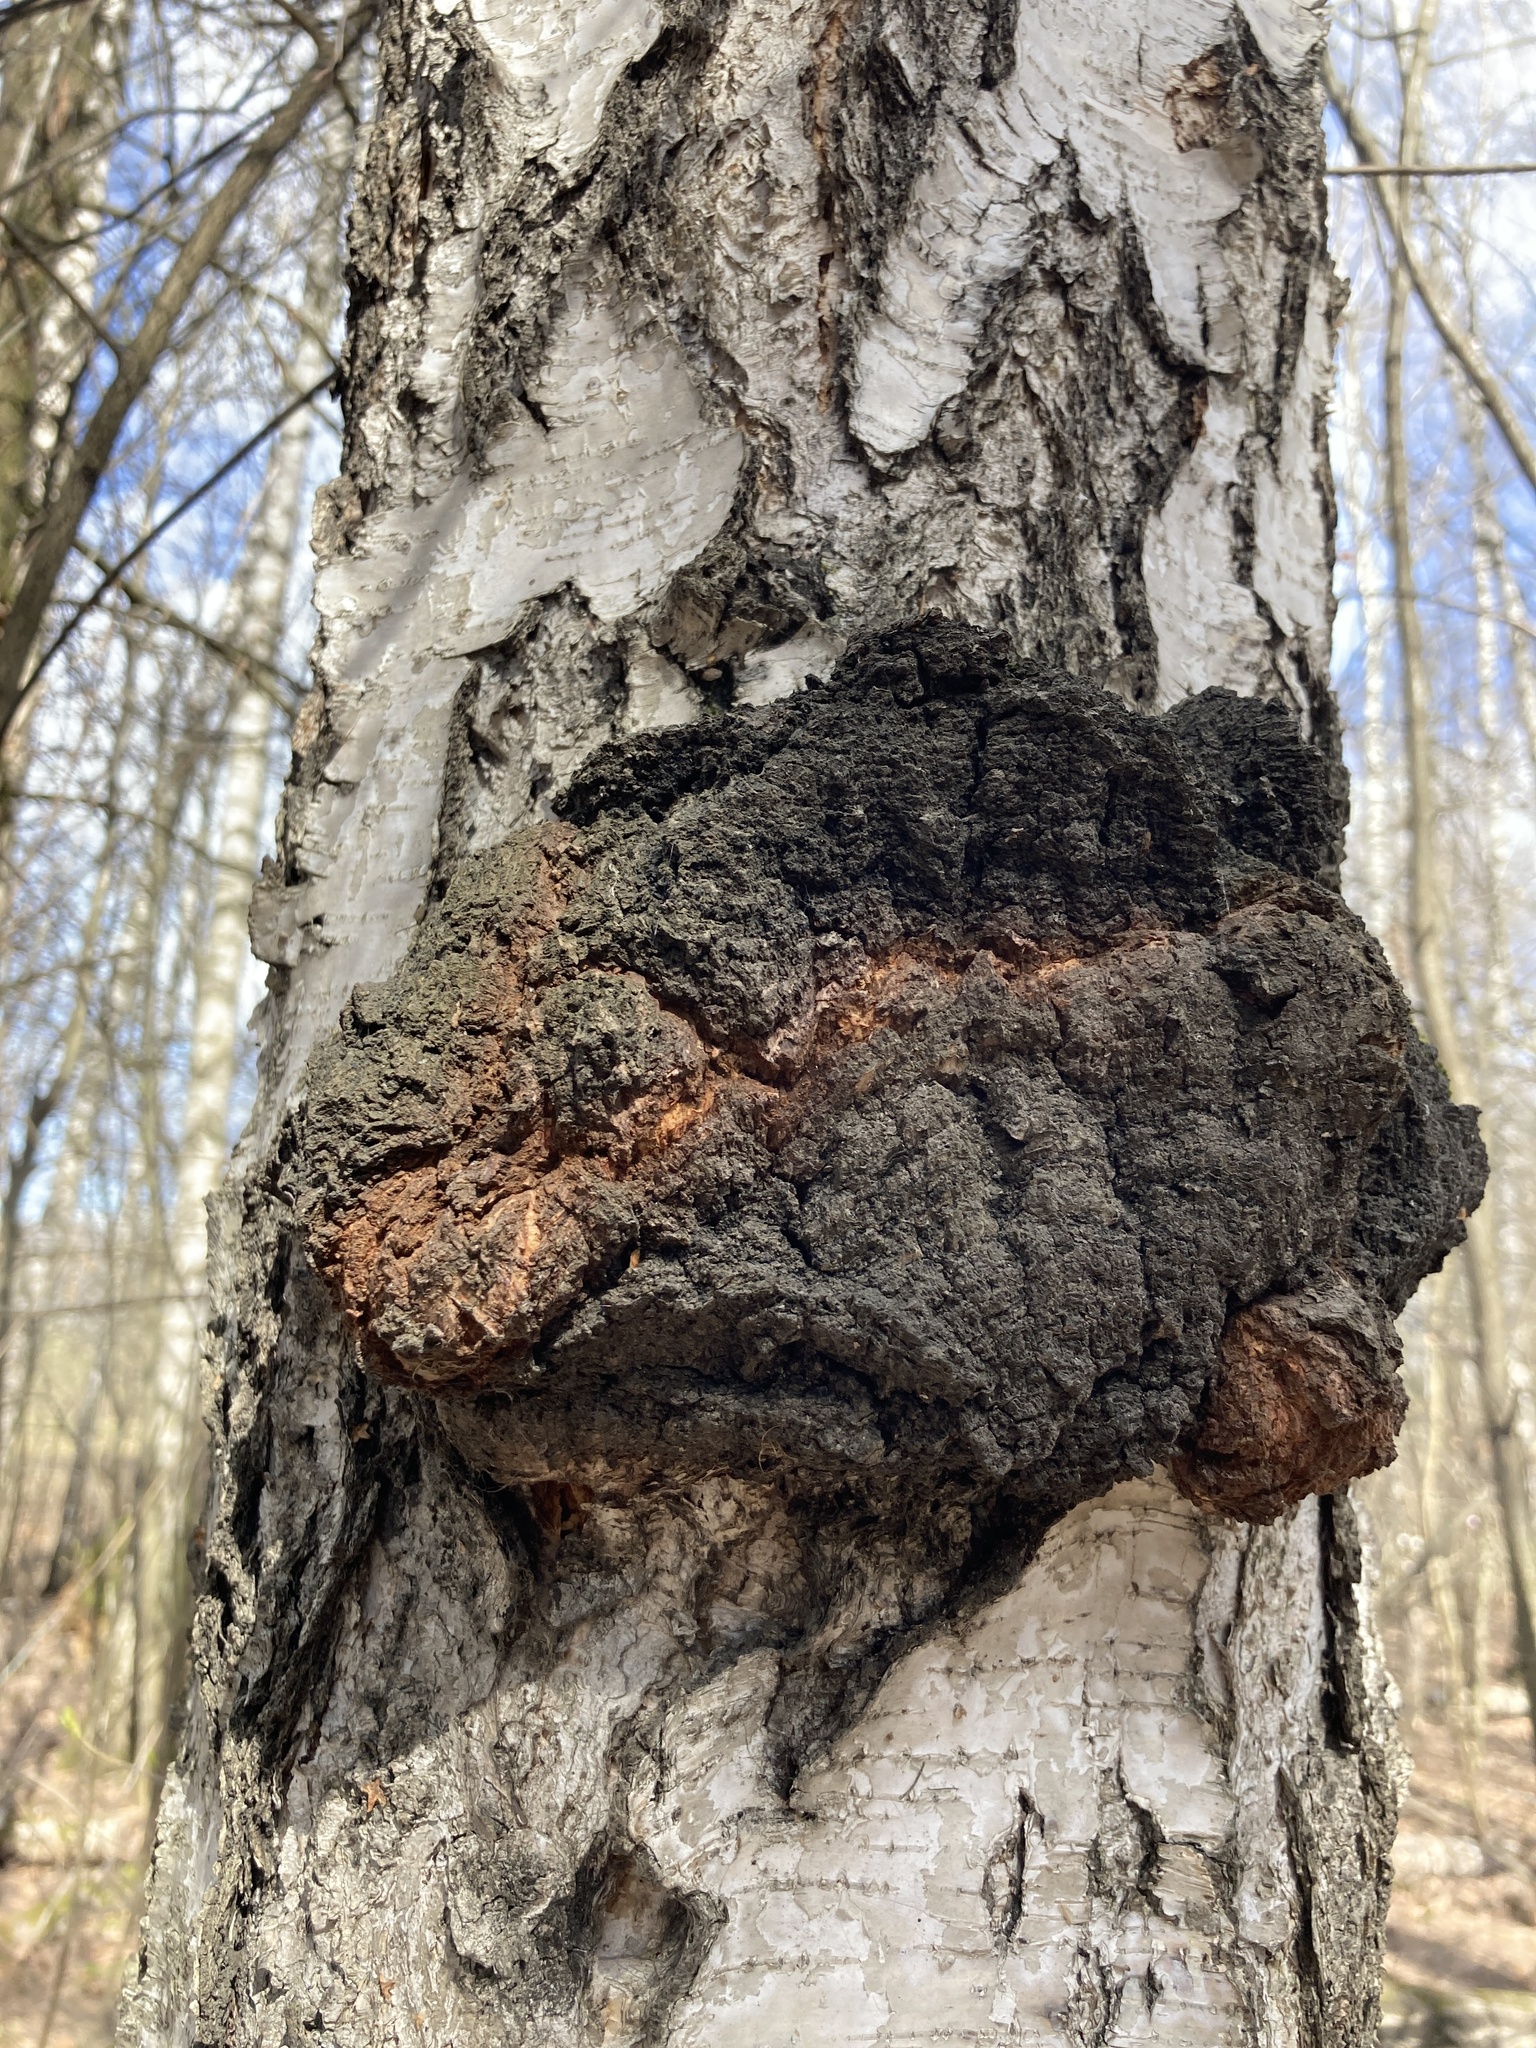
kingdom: Fungi
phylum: Basidiomycota
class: Agaricomycetes
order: Hymenochaetales
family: Hymenochaetaceae
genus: Inonotus
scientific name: Inonotus obliquus
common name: Chaga
